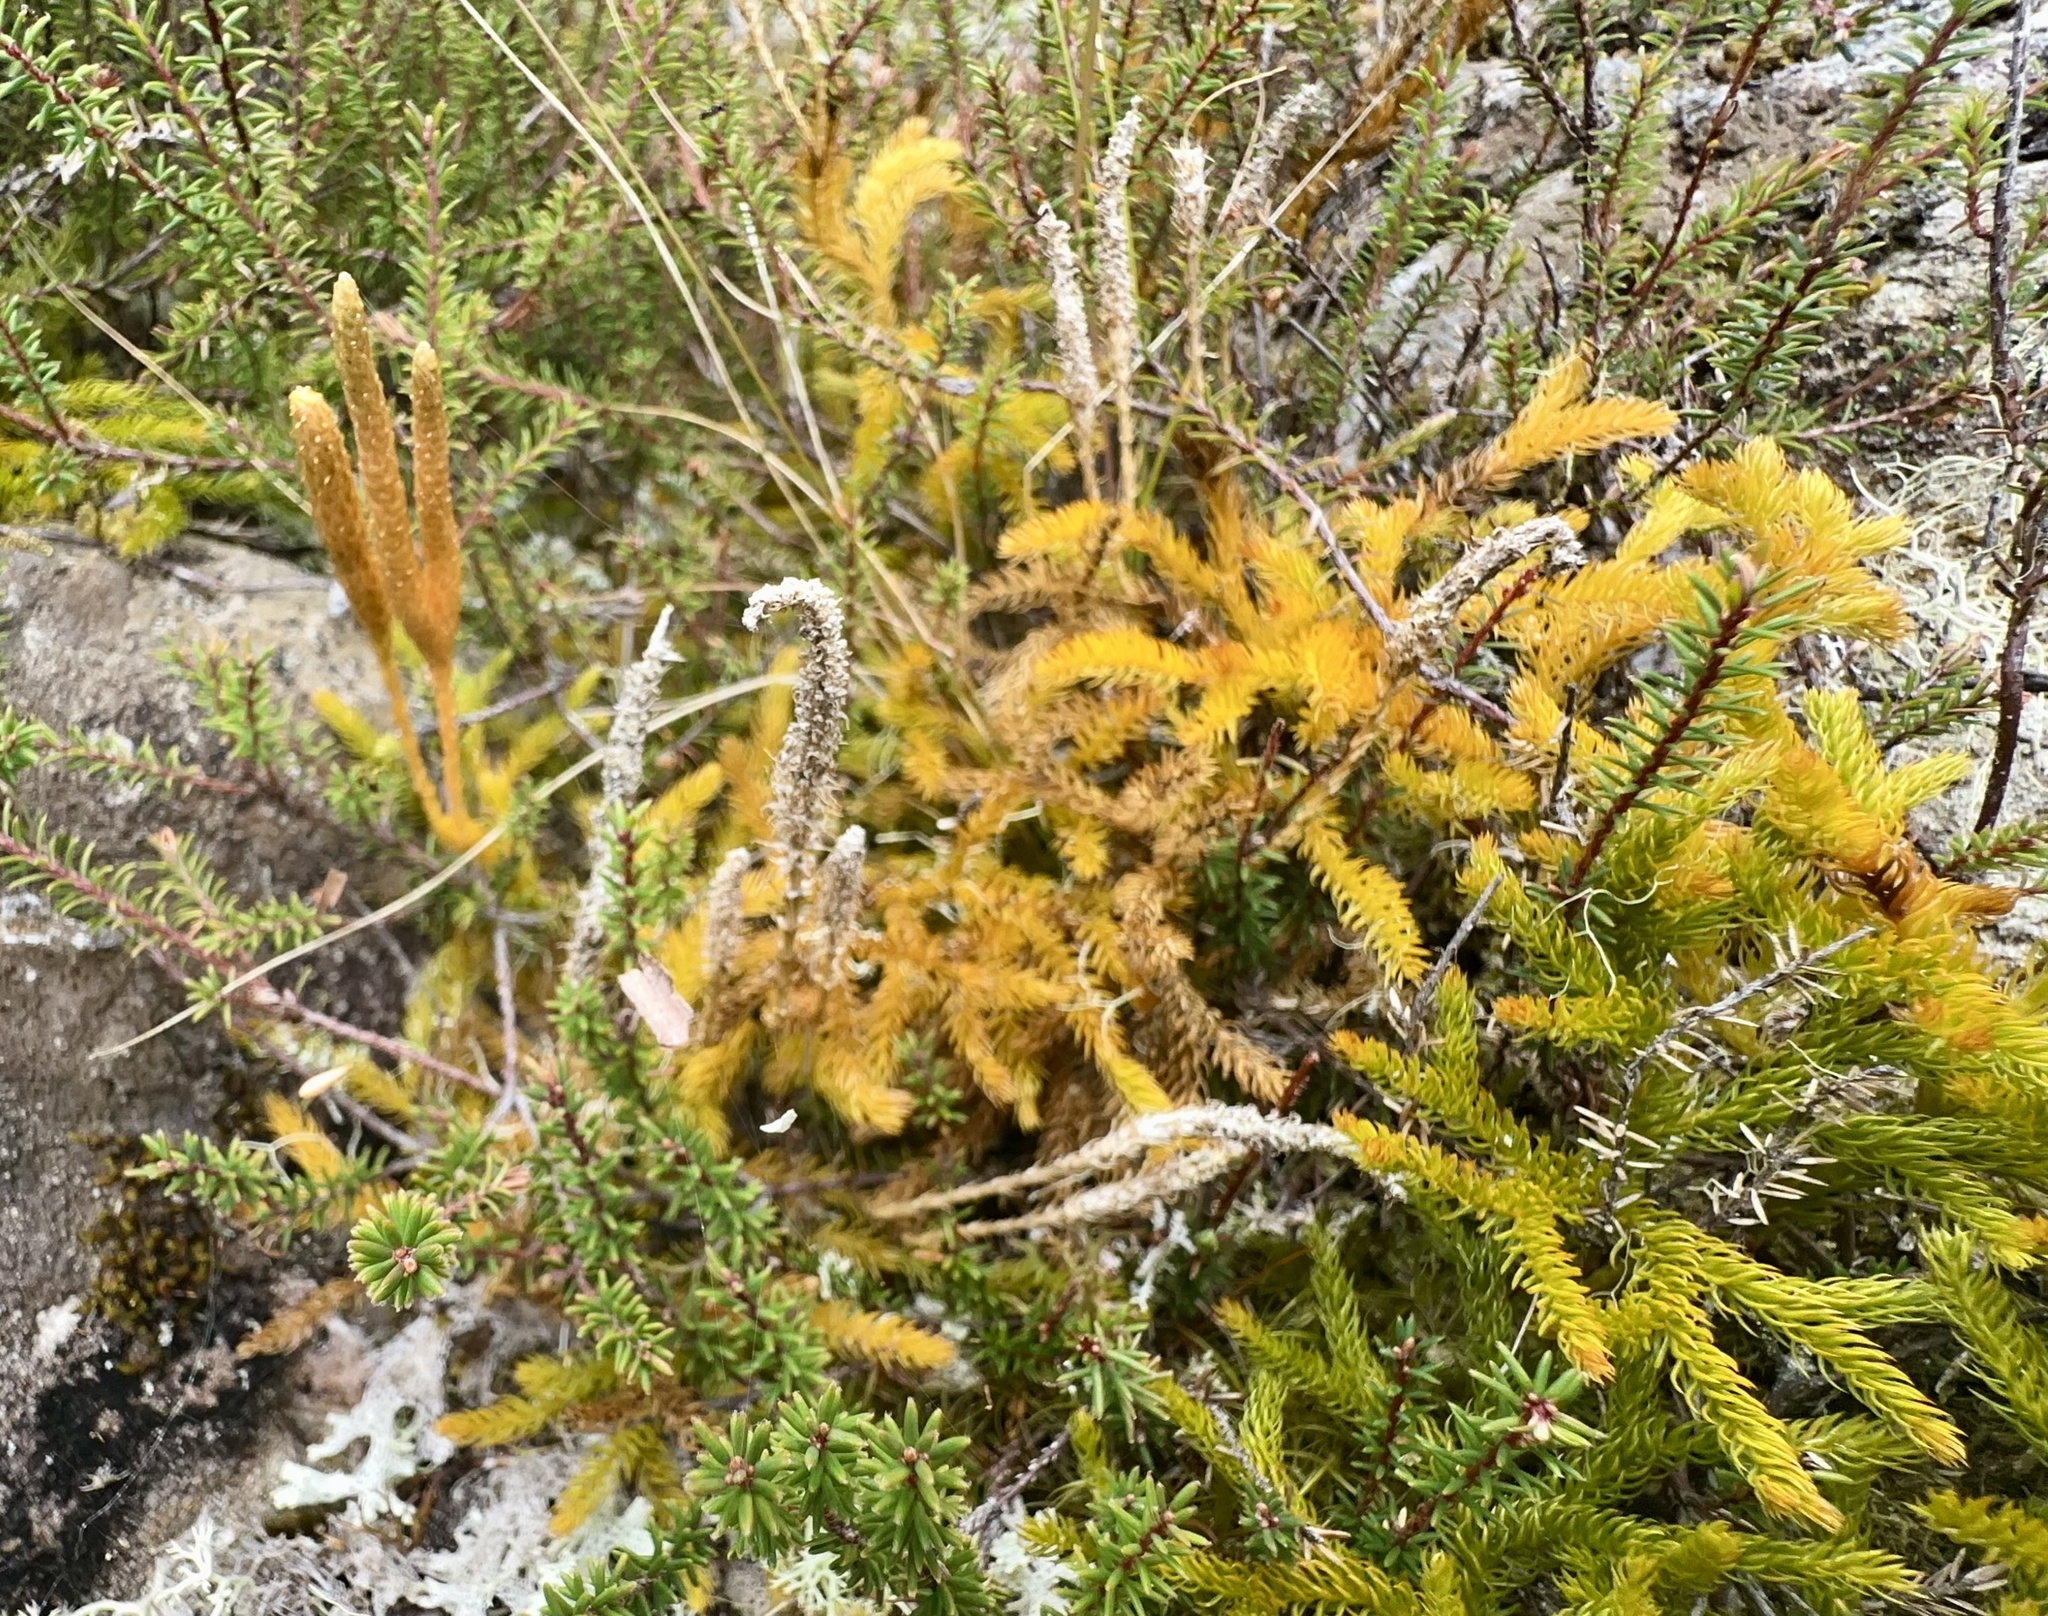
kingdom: Plantae
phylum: Tracheophyta
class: Lycopodiopsida
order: Lycopodiales
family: Lycopodiaceae
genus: Austrolycopodium
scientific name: Austrolycopodium fastigiatum
